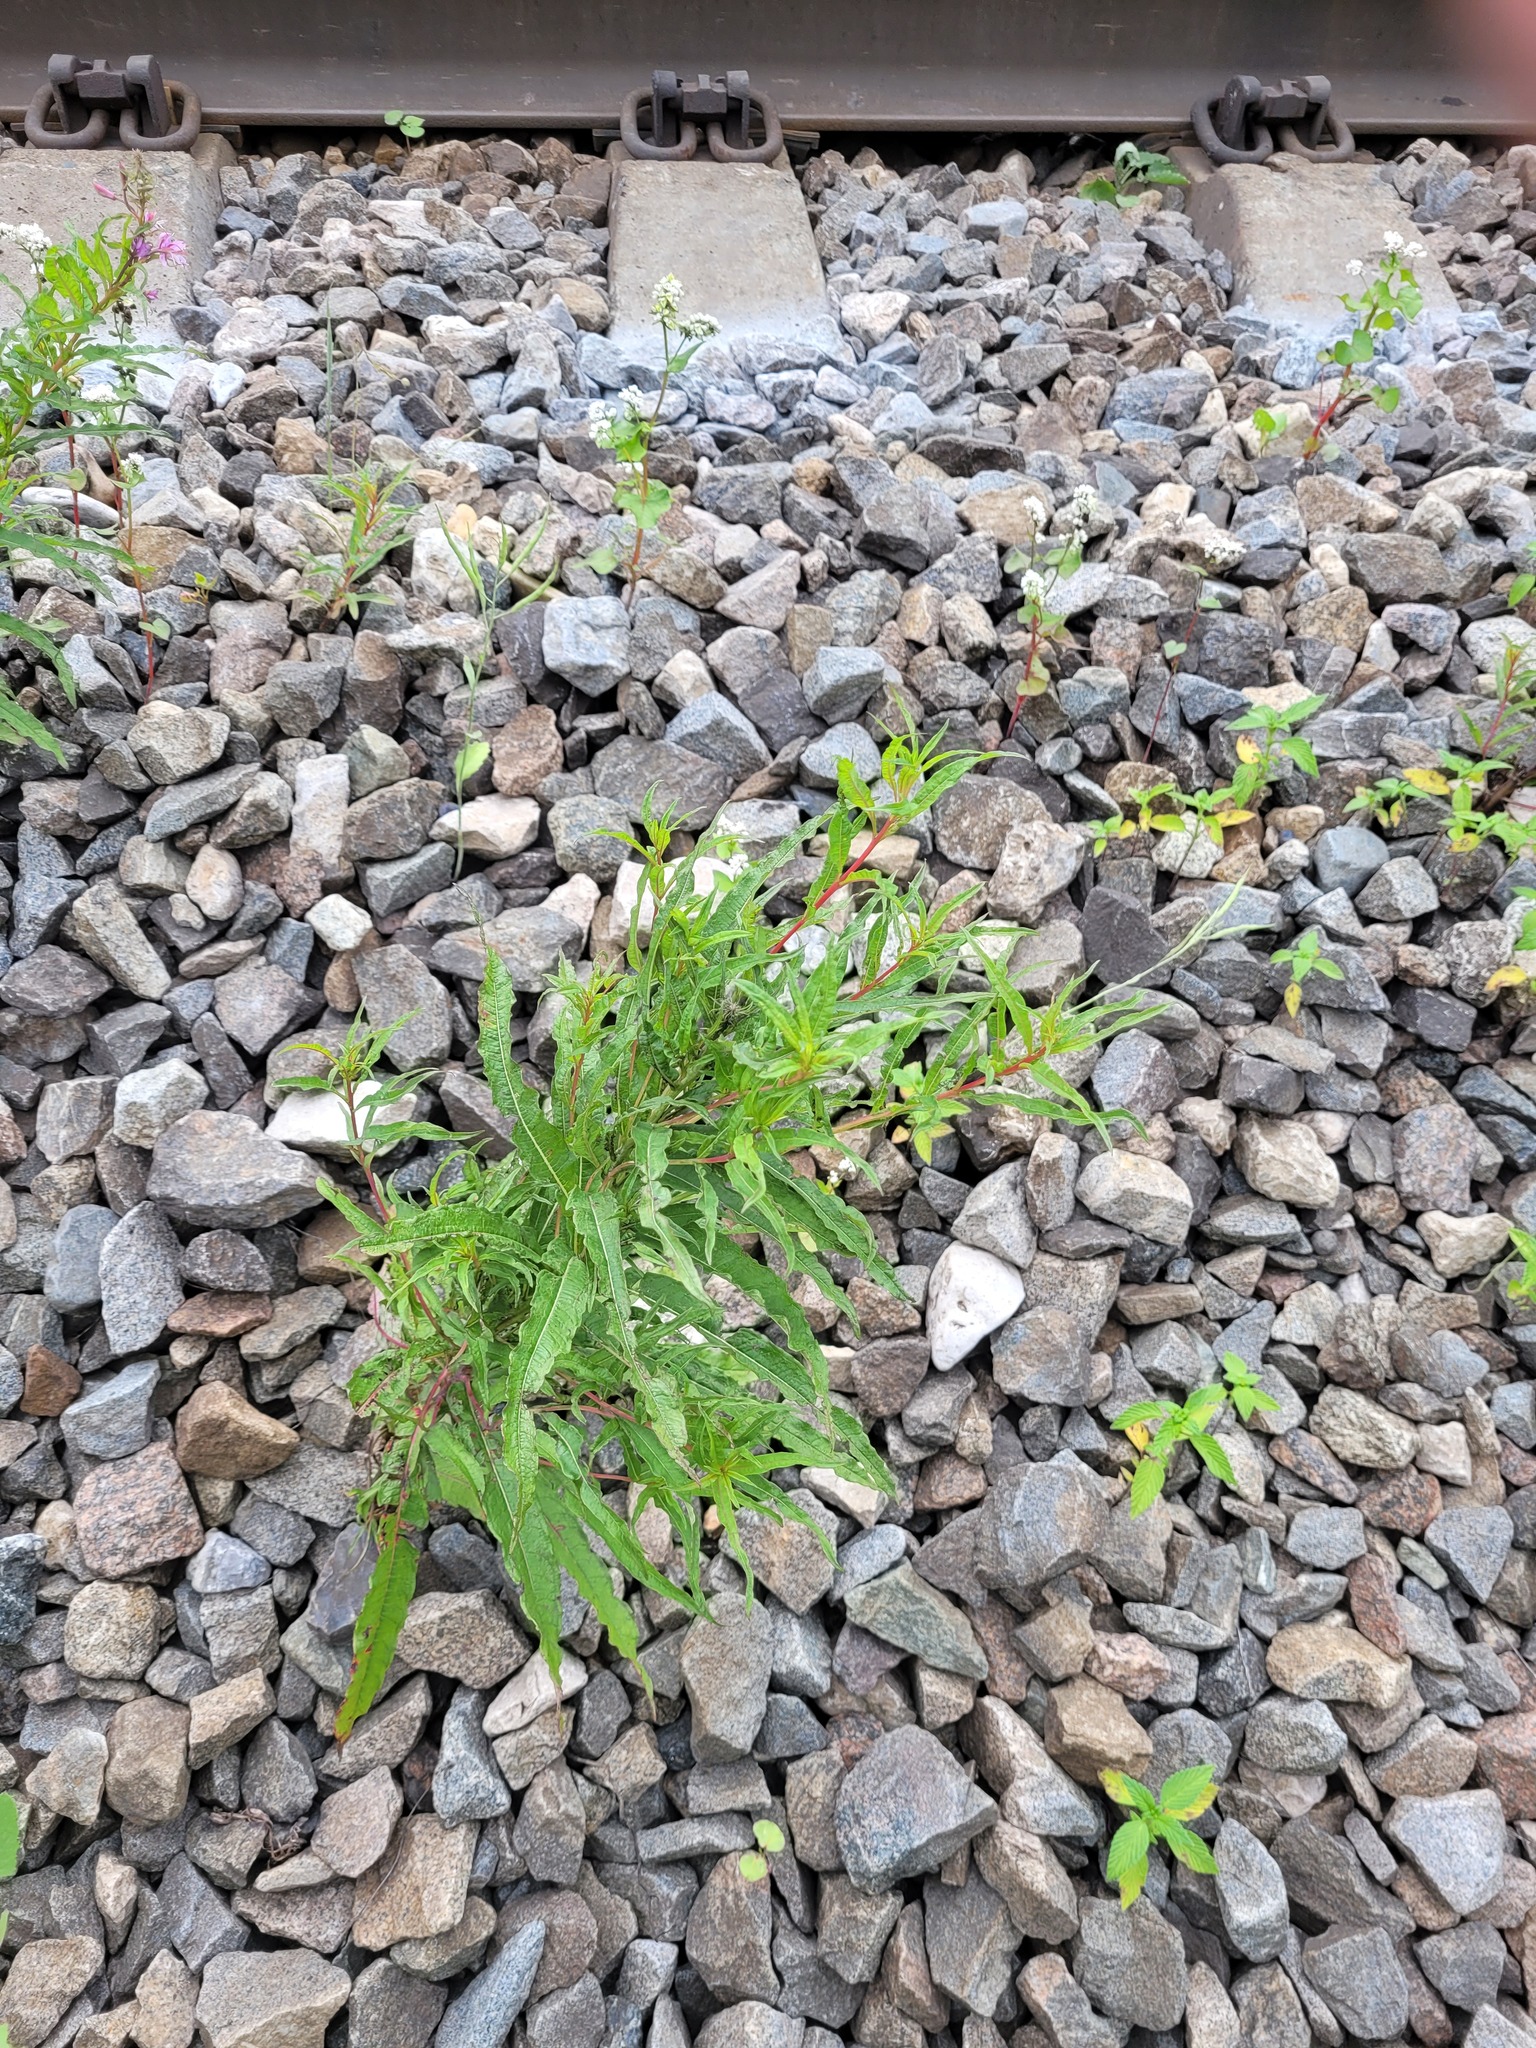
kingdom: Plantae
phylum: Tracheophyta
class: Magnoliopsida
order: Myrtales
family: Onagraceae
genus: Chamaenerion
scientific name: Chamaenerion angustifolium
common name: Fireweed
